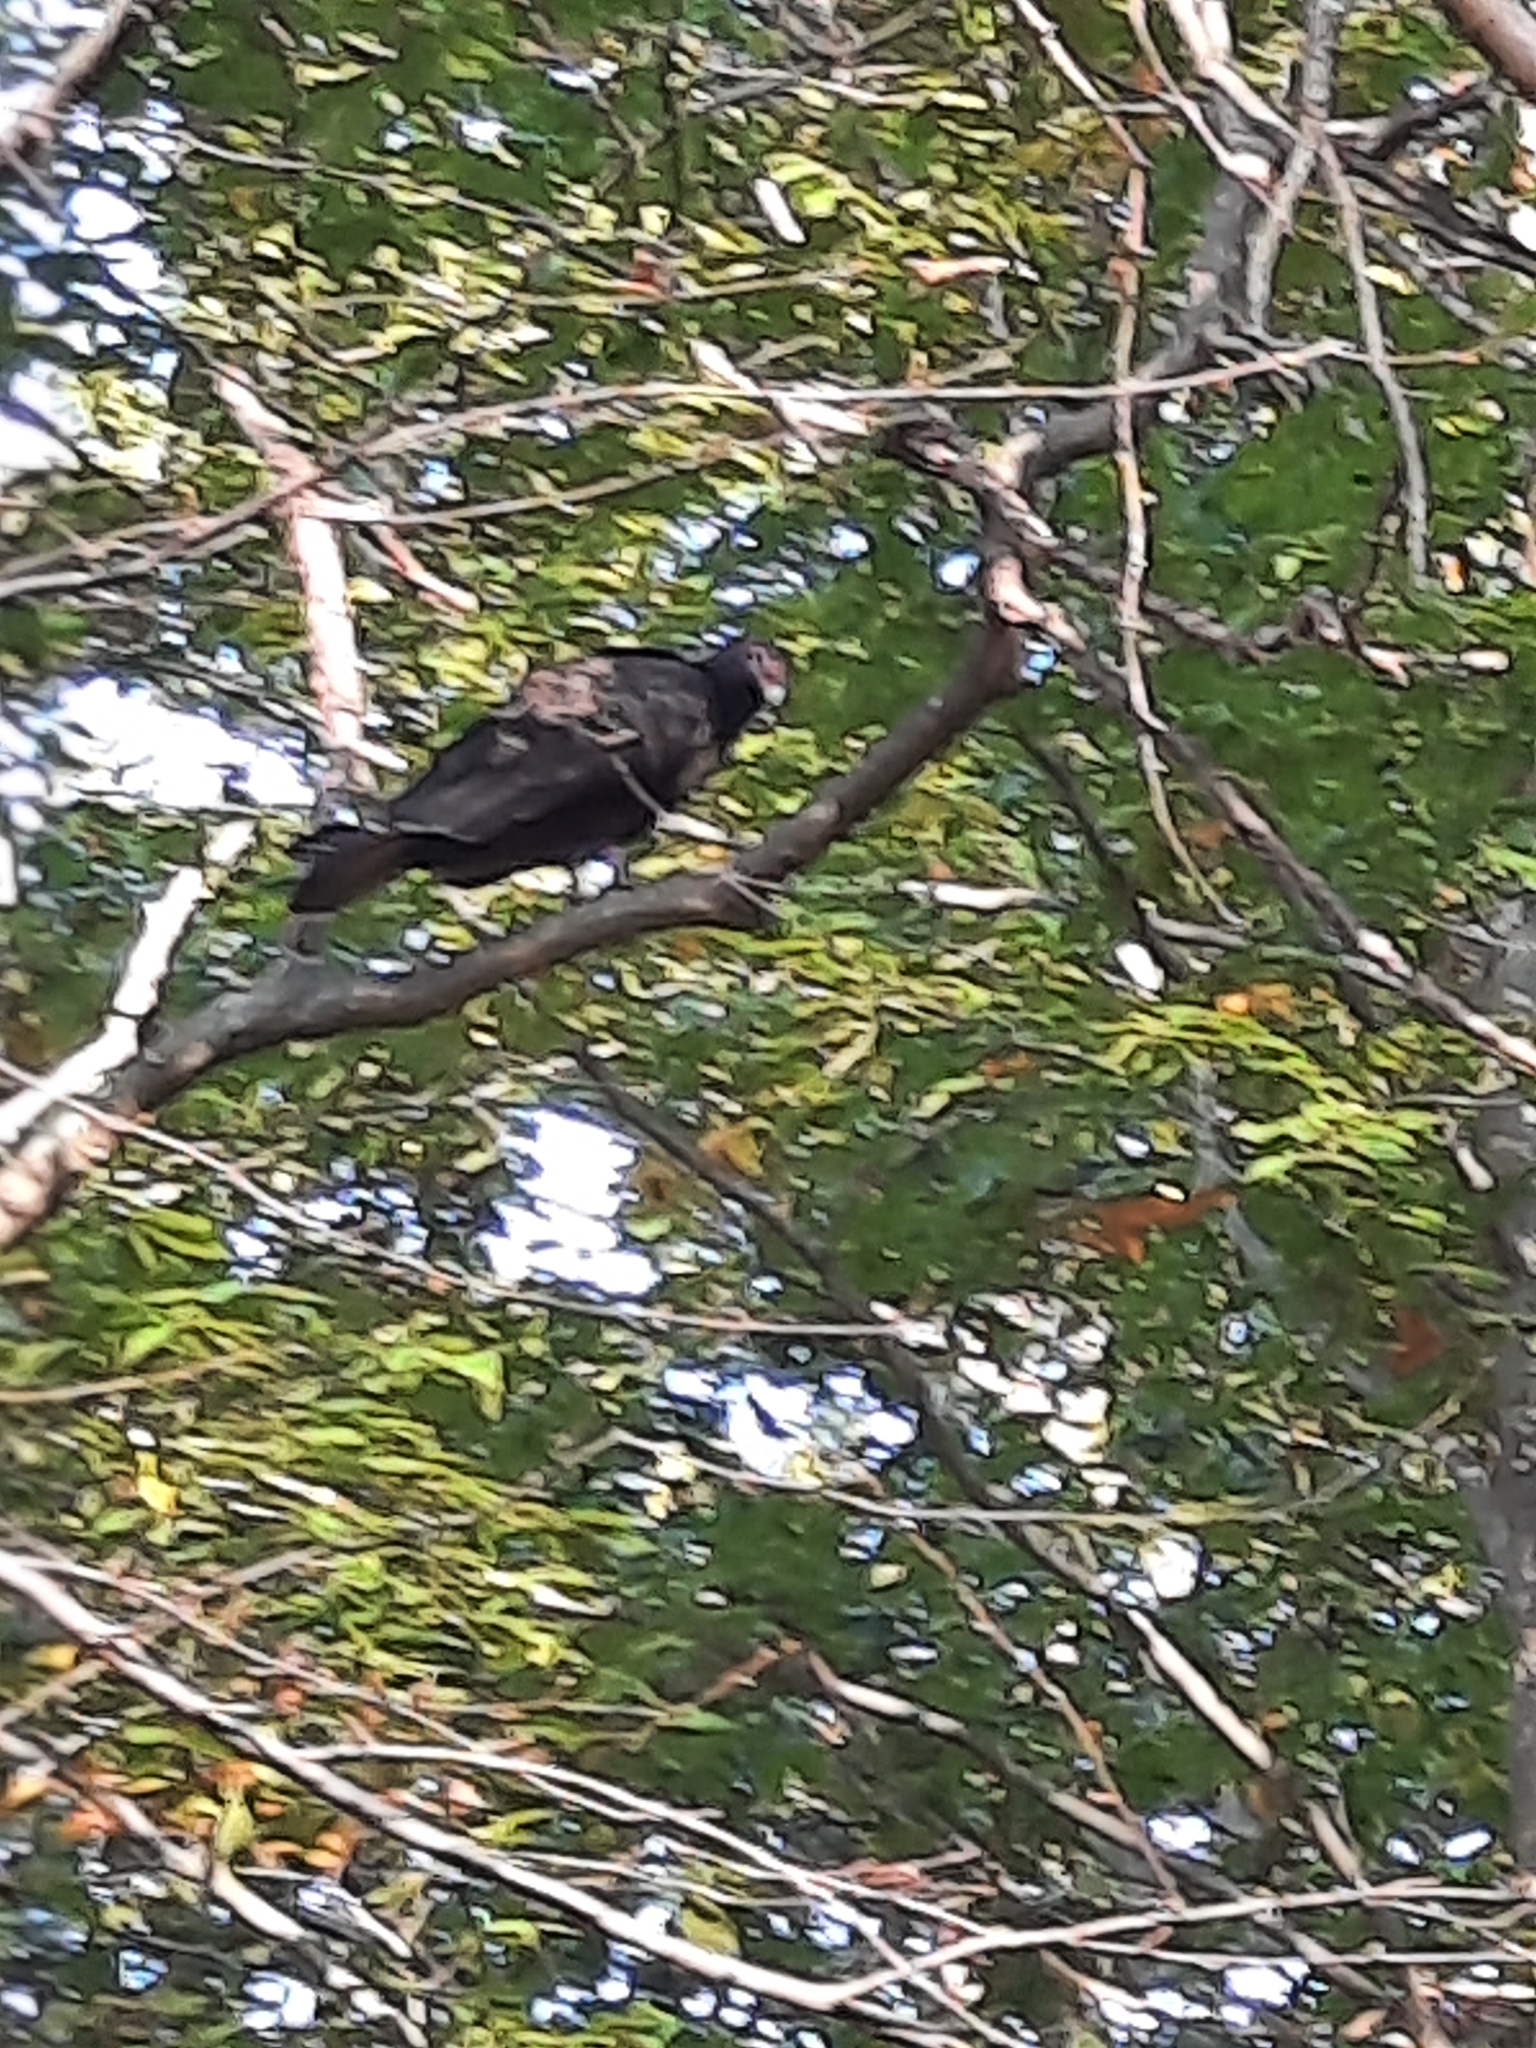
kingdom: Animalia
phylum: Chordata
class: Aves
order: Accipitriformes
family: Cathartidae
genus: Cathartes
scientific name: Cathartes aura
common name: Turkey vulture
